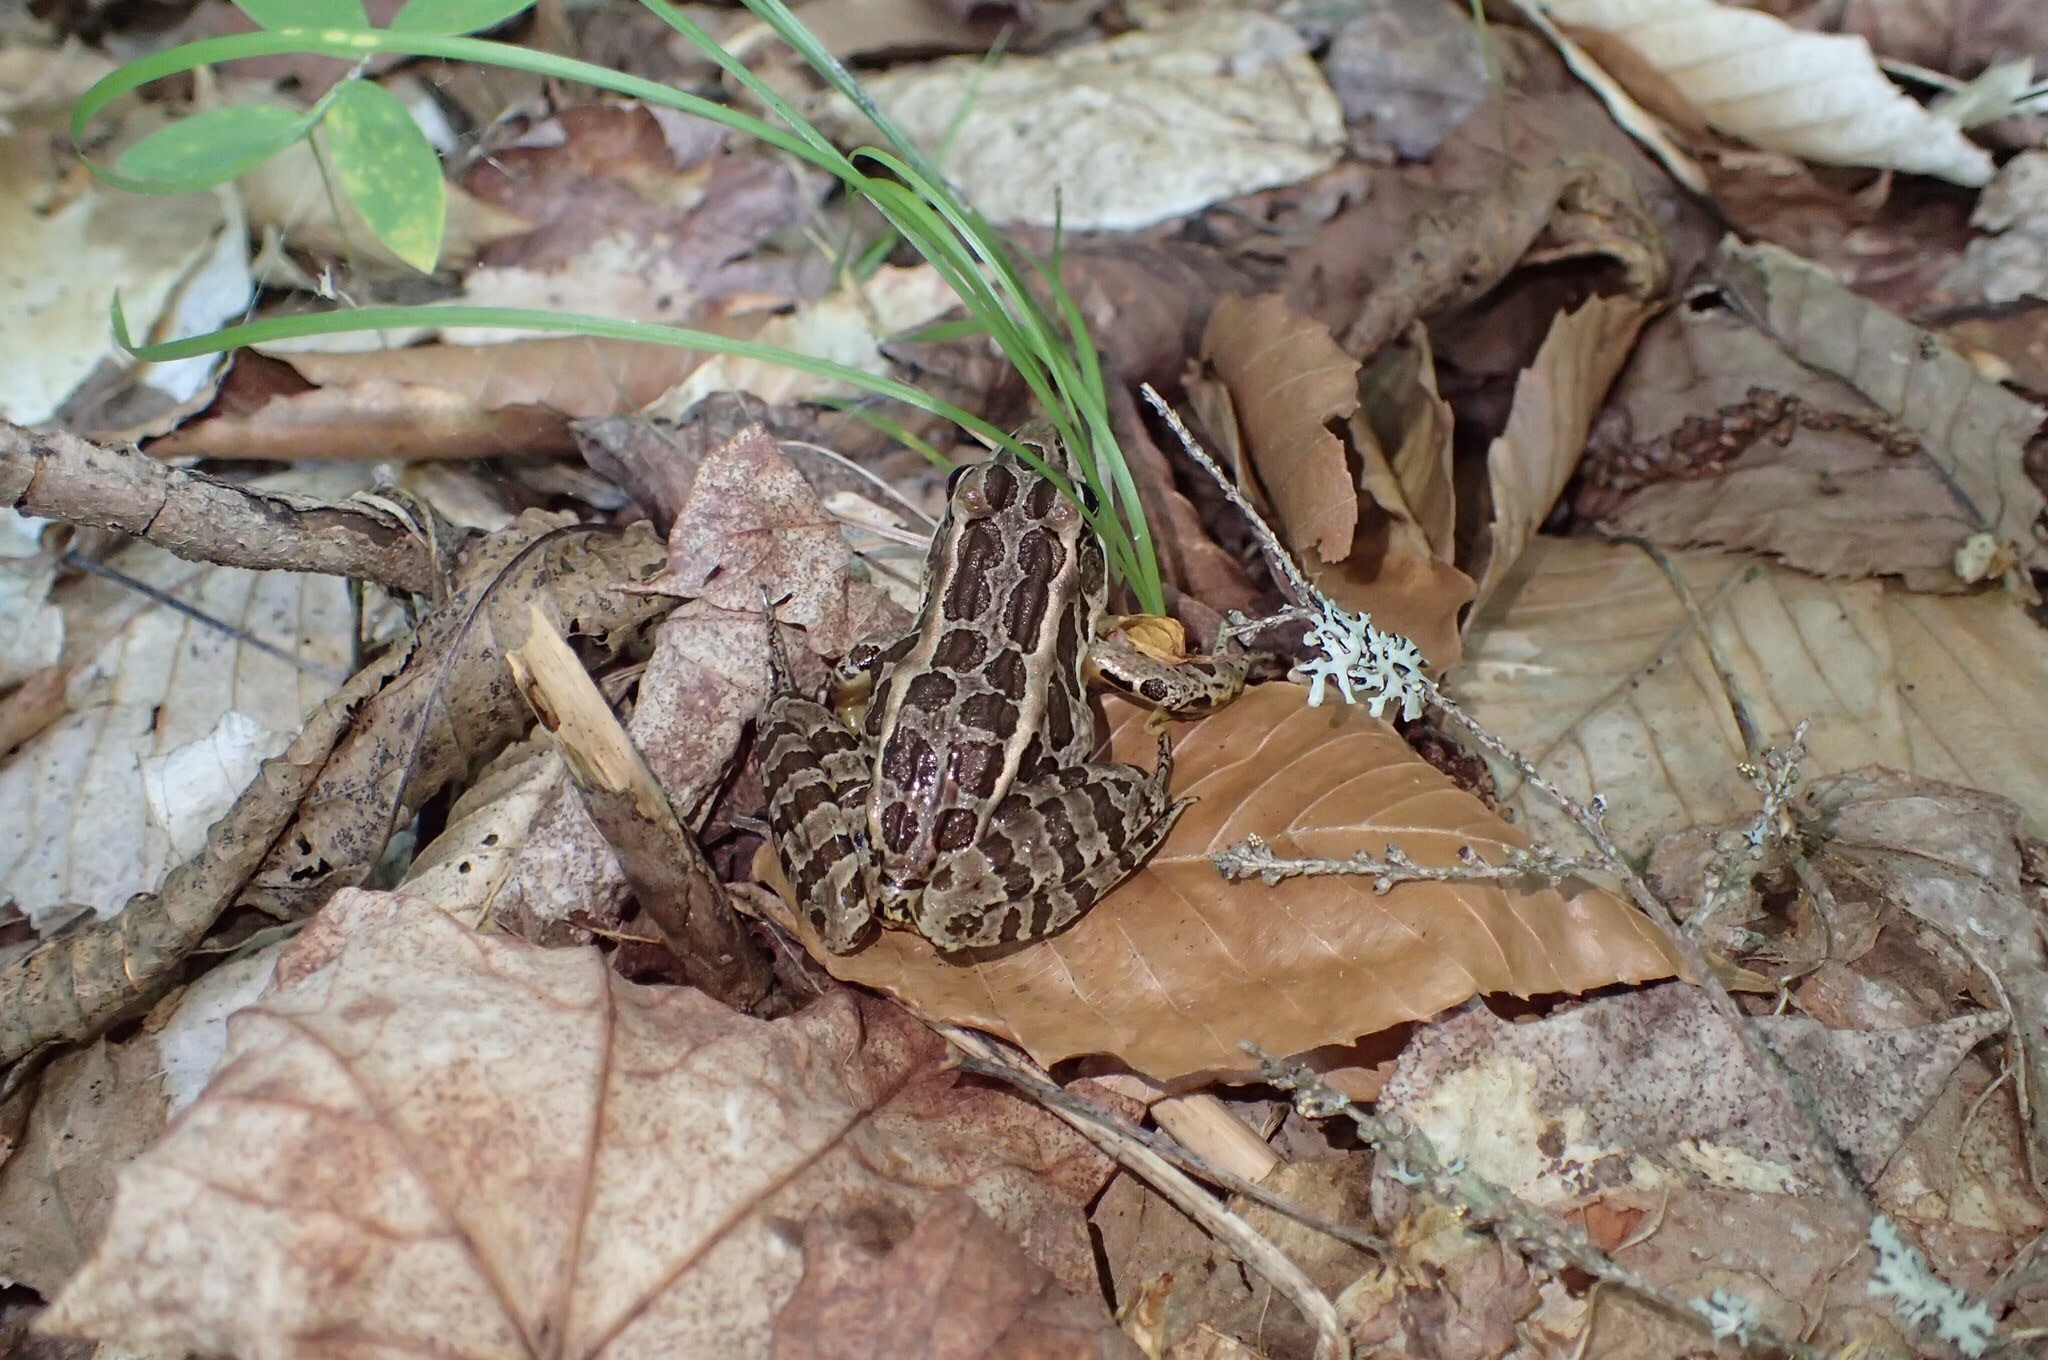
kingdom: Animalia
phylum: Chordata
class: Amphibia
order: Anura
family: Ranidae
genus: Lithobates
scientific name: Lithobates palustris
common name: Pickerel frog
